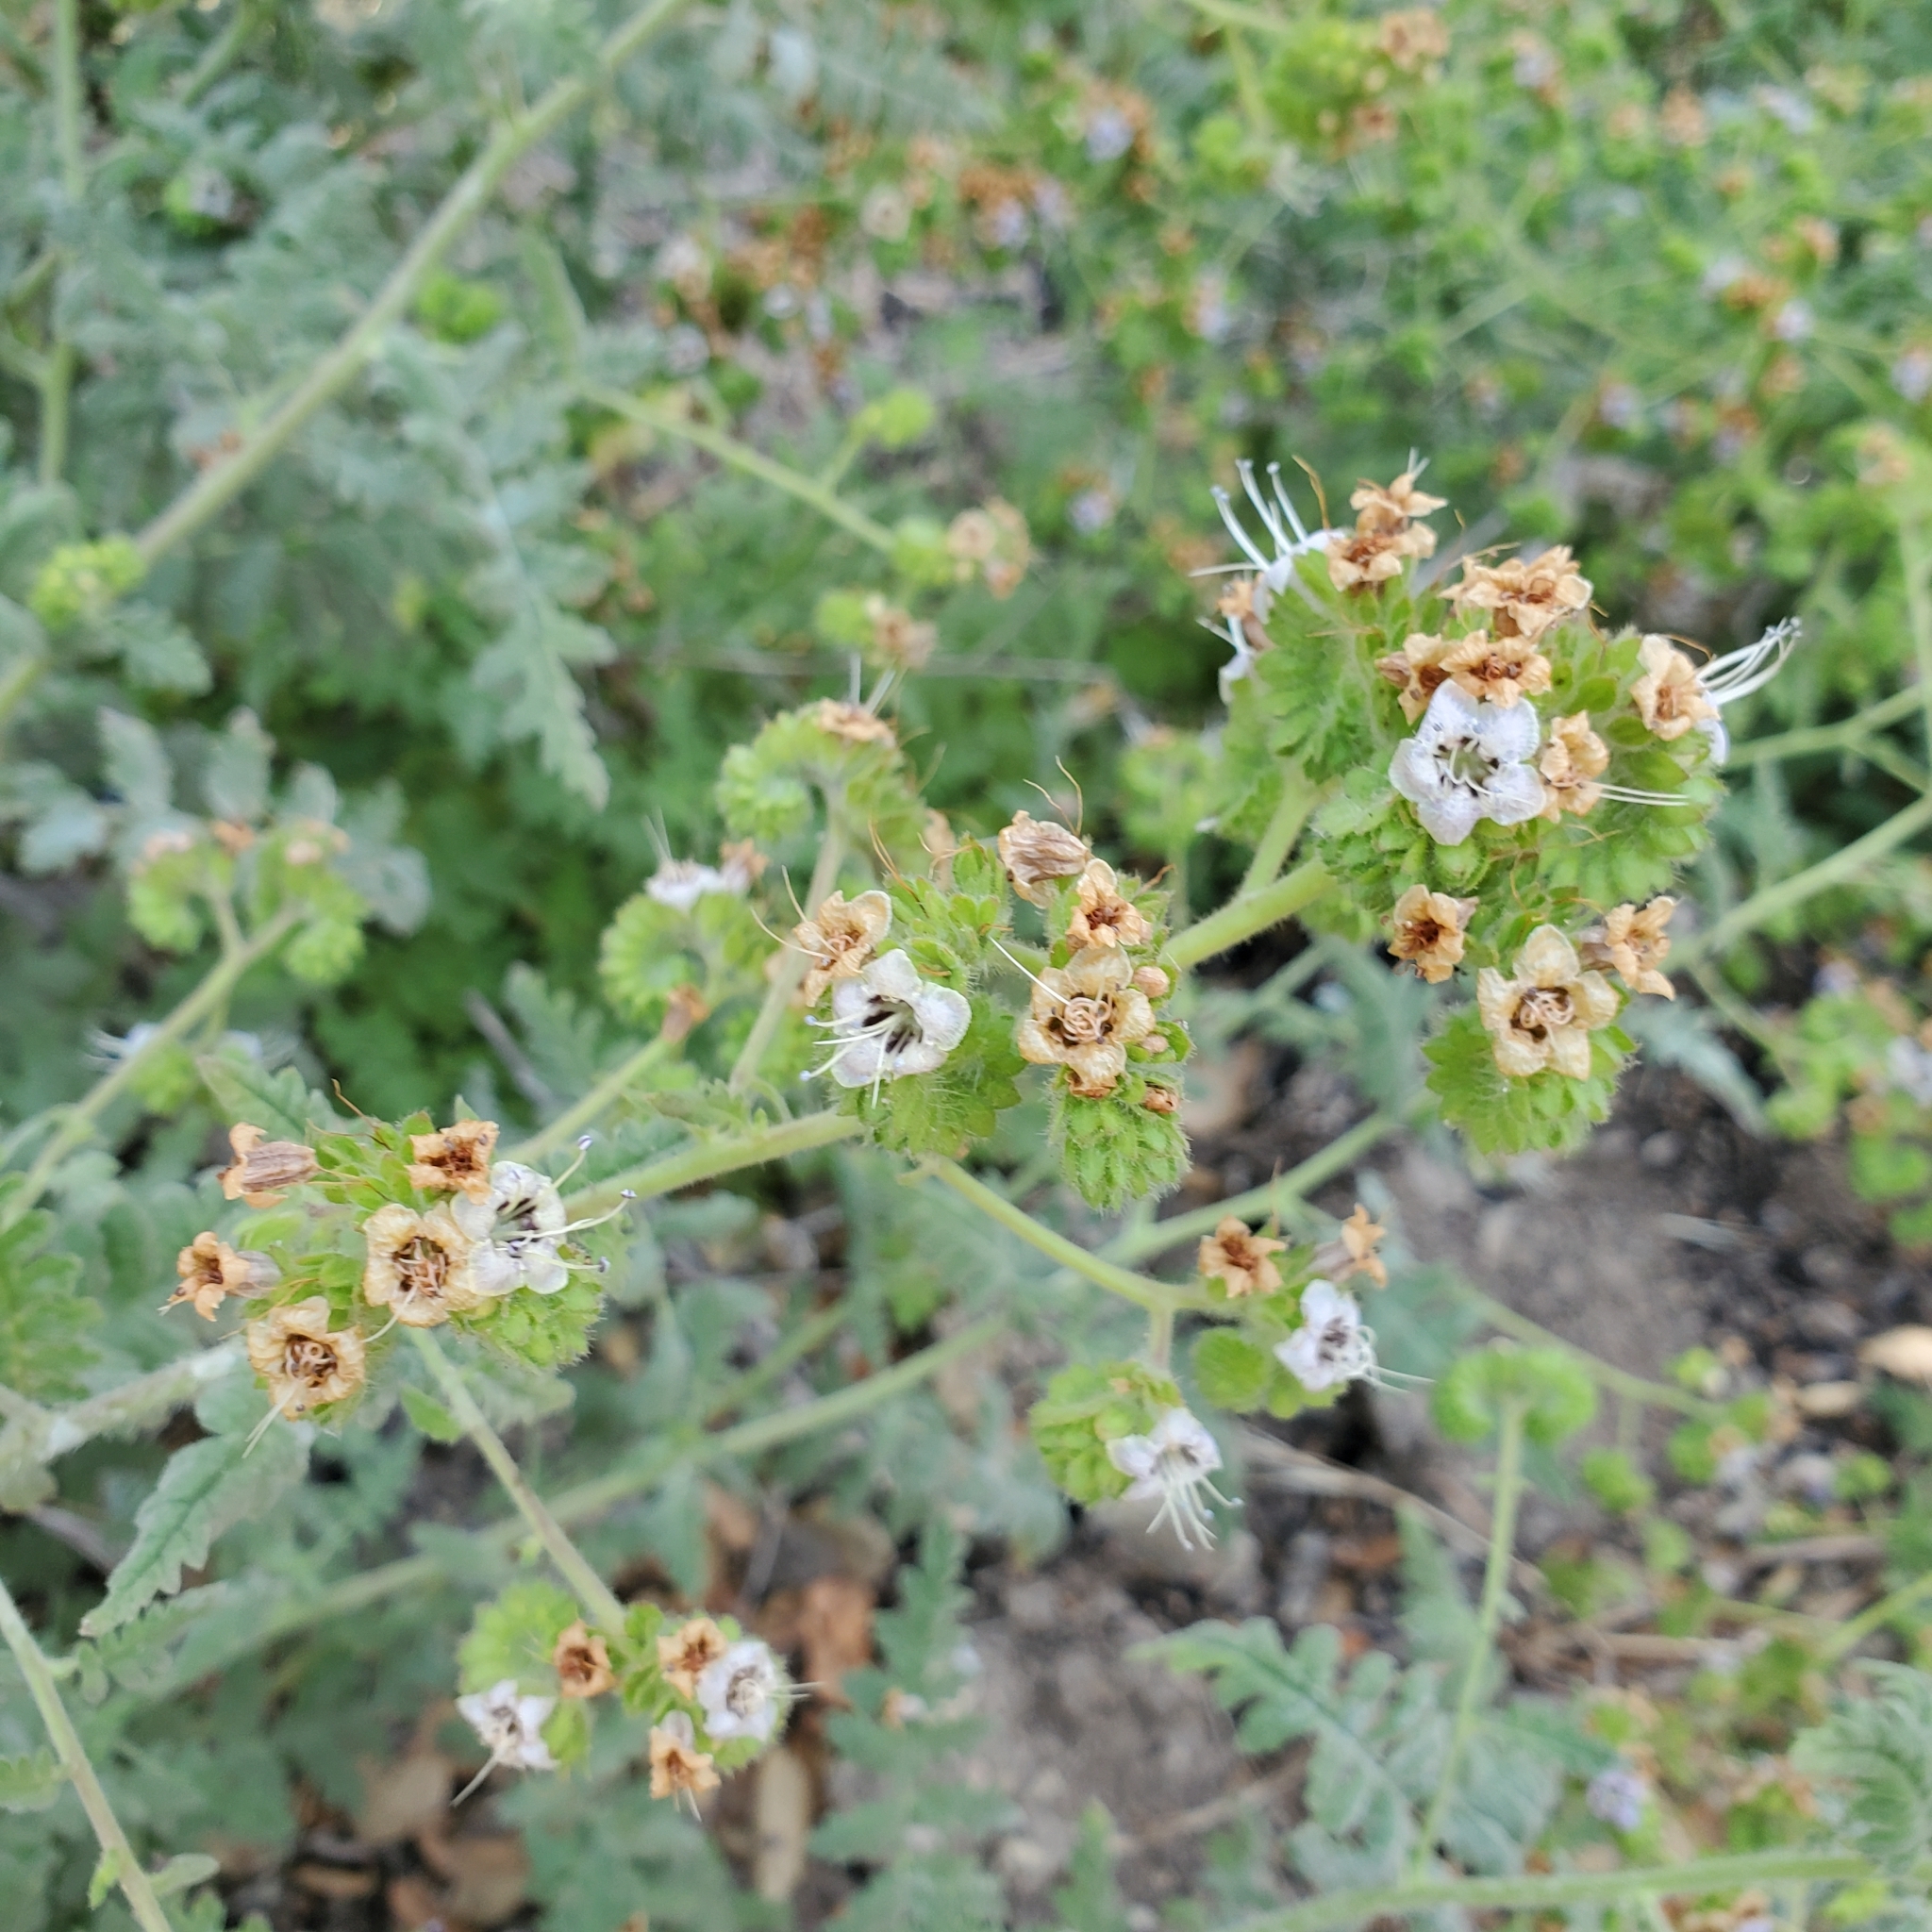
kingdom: Plantae
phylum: Tracheophyta
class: Magnoliopsida
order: Boraginales
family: Hydrophyllaceae
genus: Phacelia
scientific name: Phacelia ramosissima
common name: Branching phacelia
